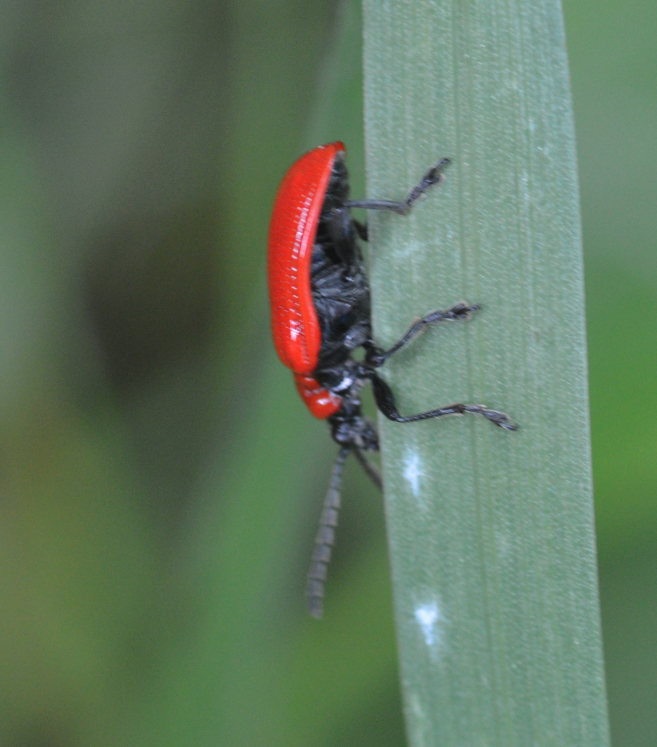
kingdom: Animalia
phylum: Arthropoda
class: Insecta
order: Coleoptera
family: Chrysomelidae
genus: Lilioceris
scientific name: Lilioceris lilii
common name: Lily beetle
